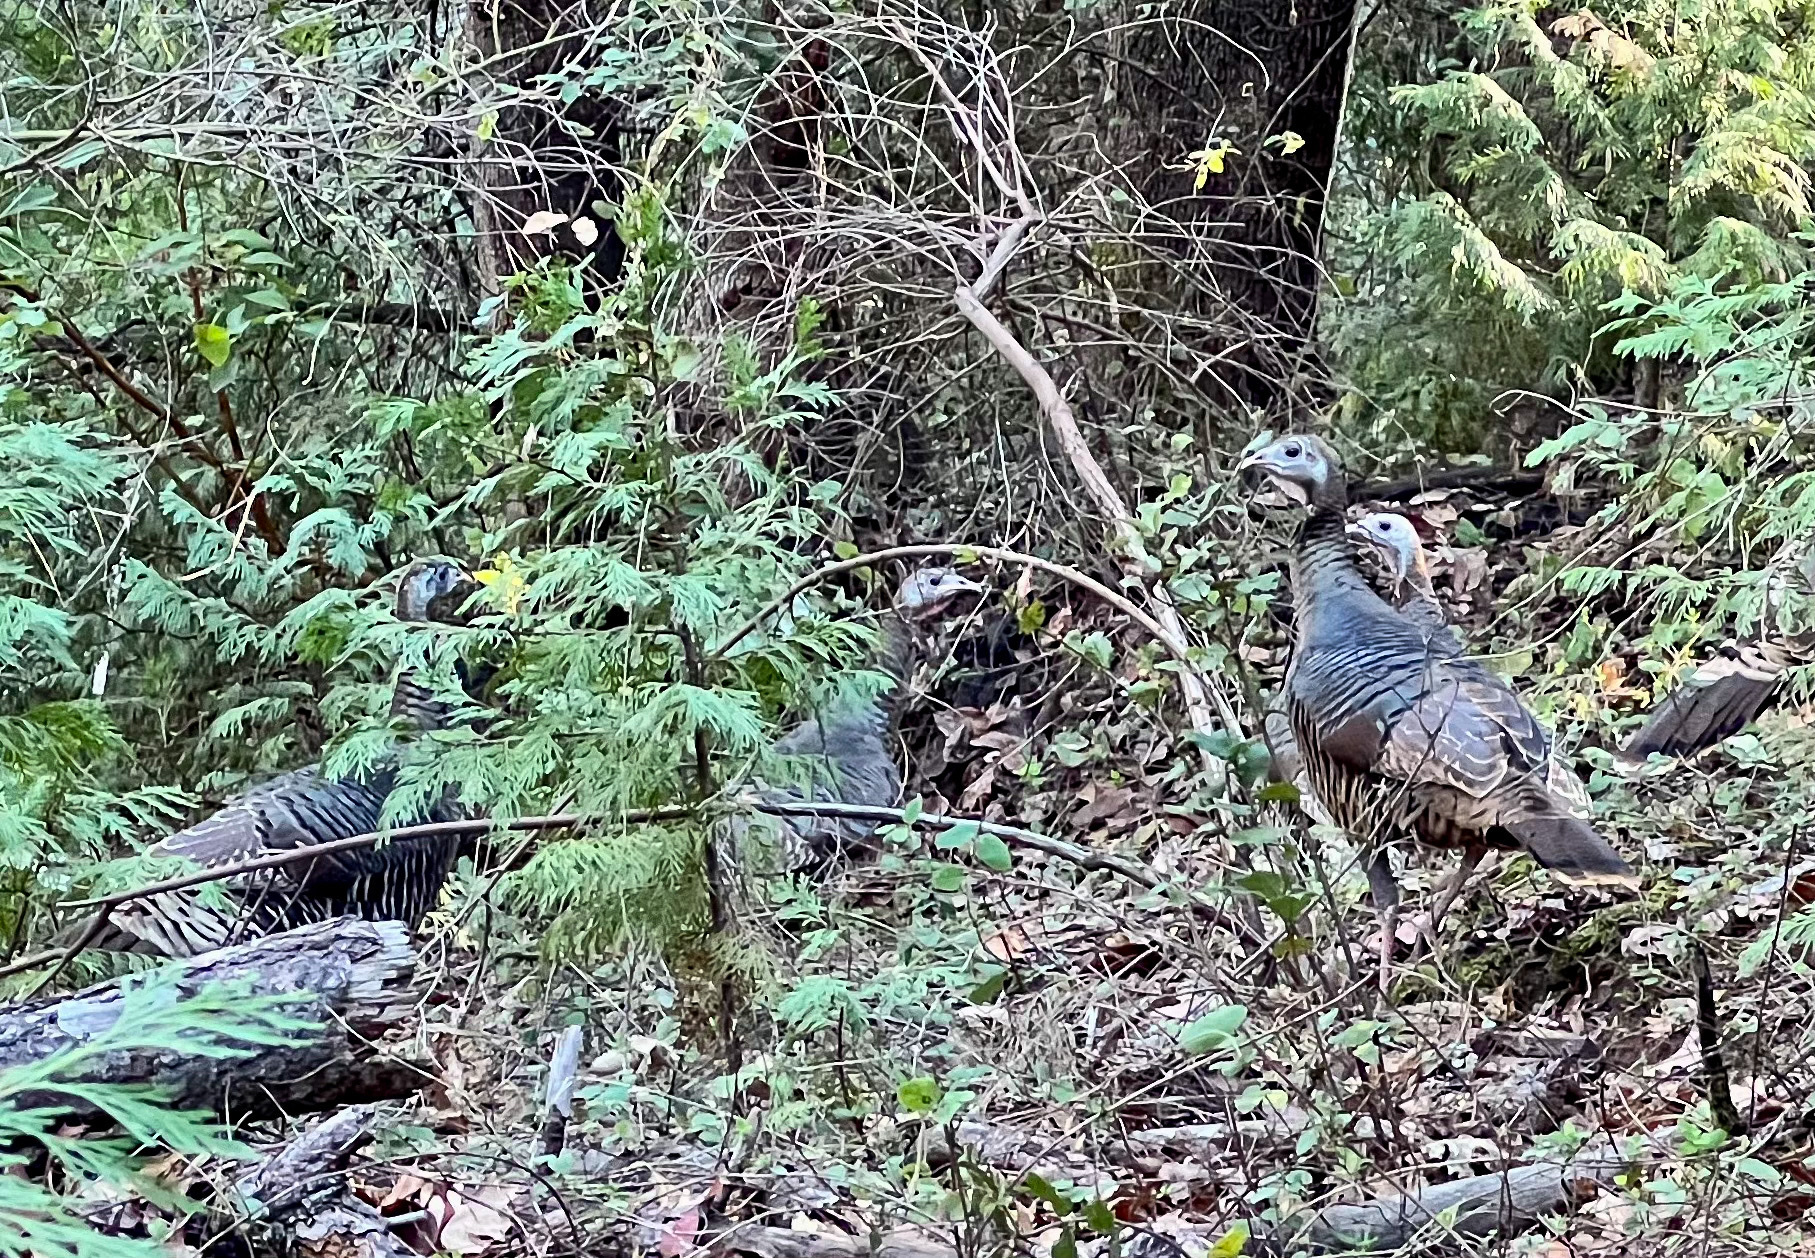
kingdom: Animalia
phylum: Chordata
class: Aves
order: Galliformes
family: Phasianidae
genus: Meleagris
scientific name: Meleagris gallopavo
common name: Wild turkey
